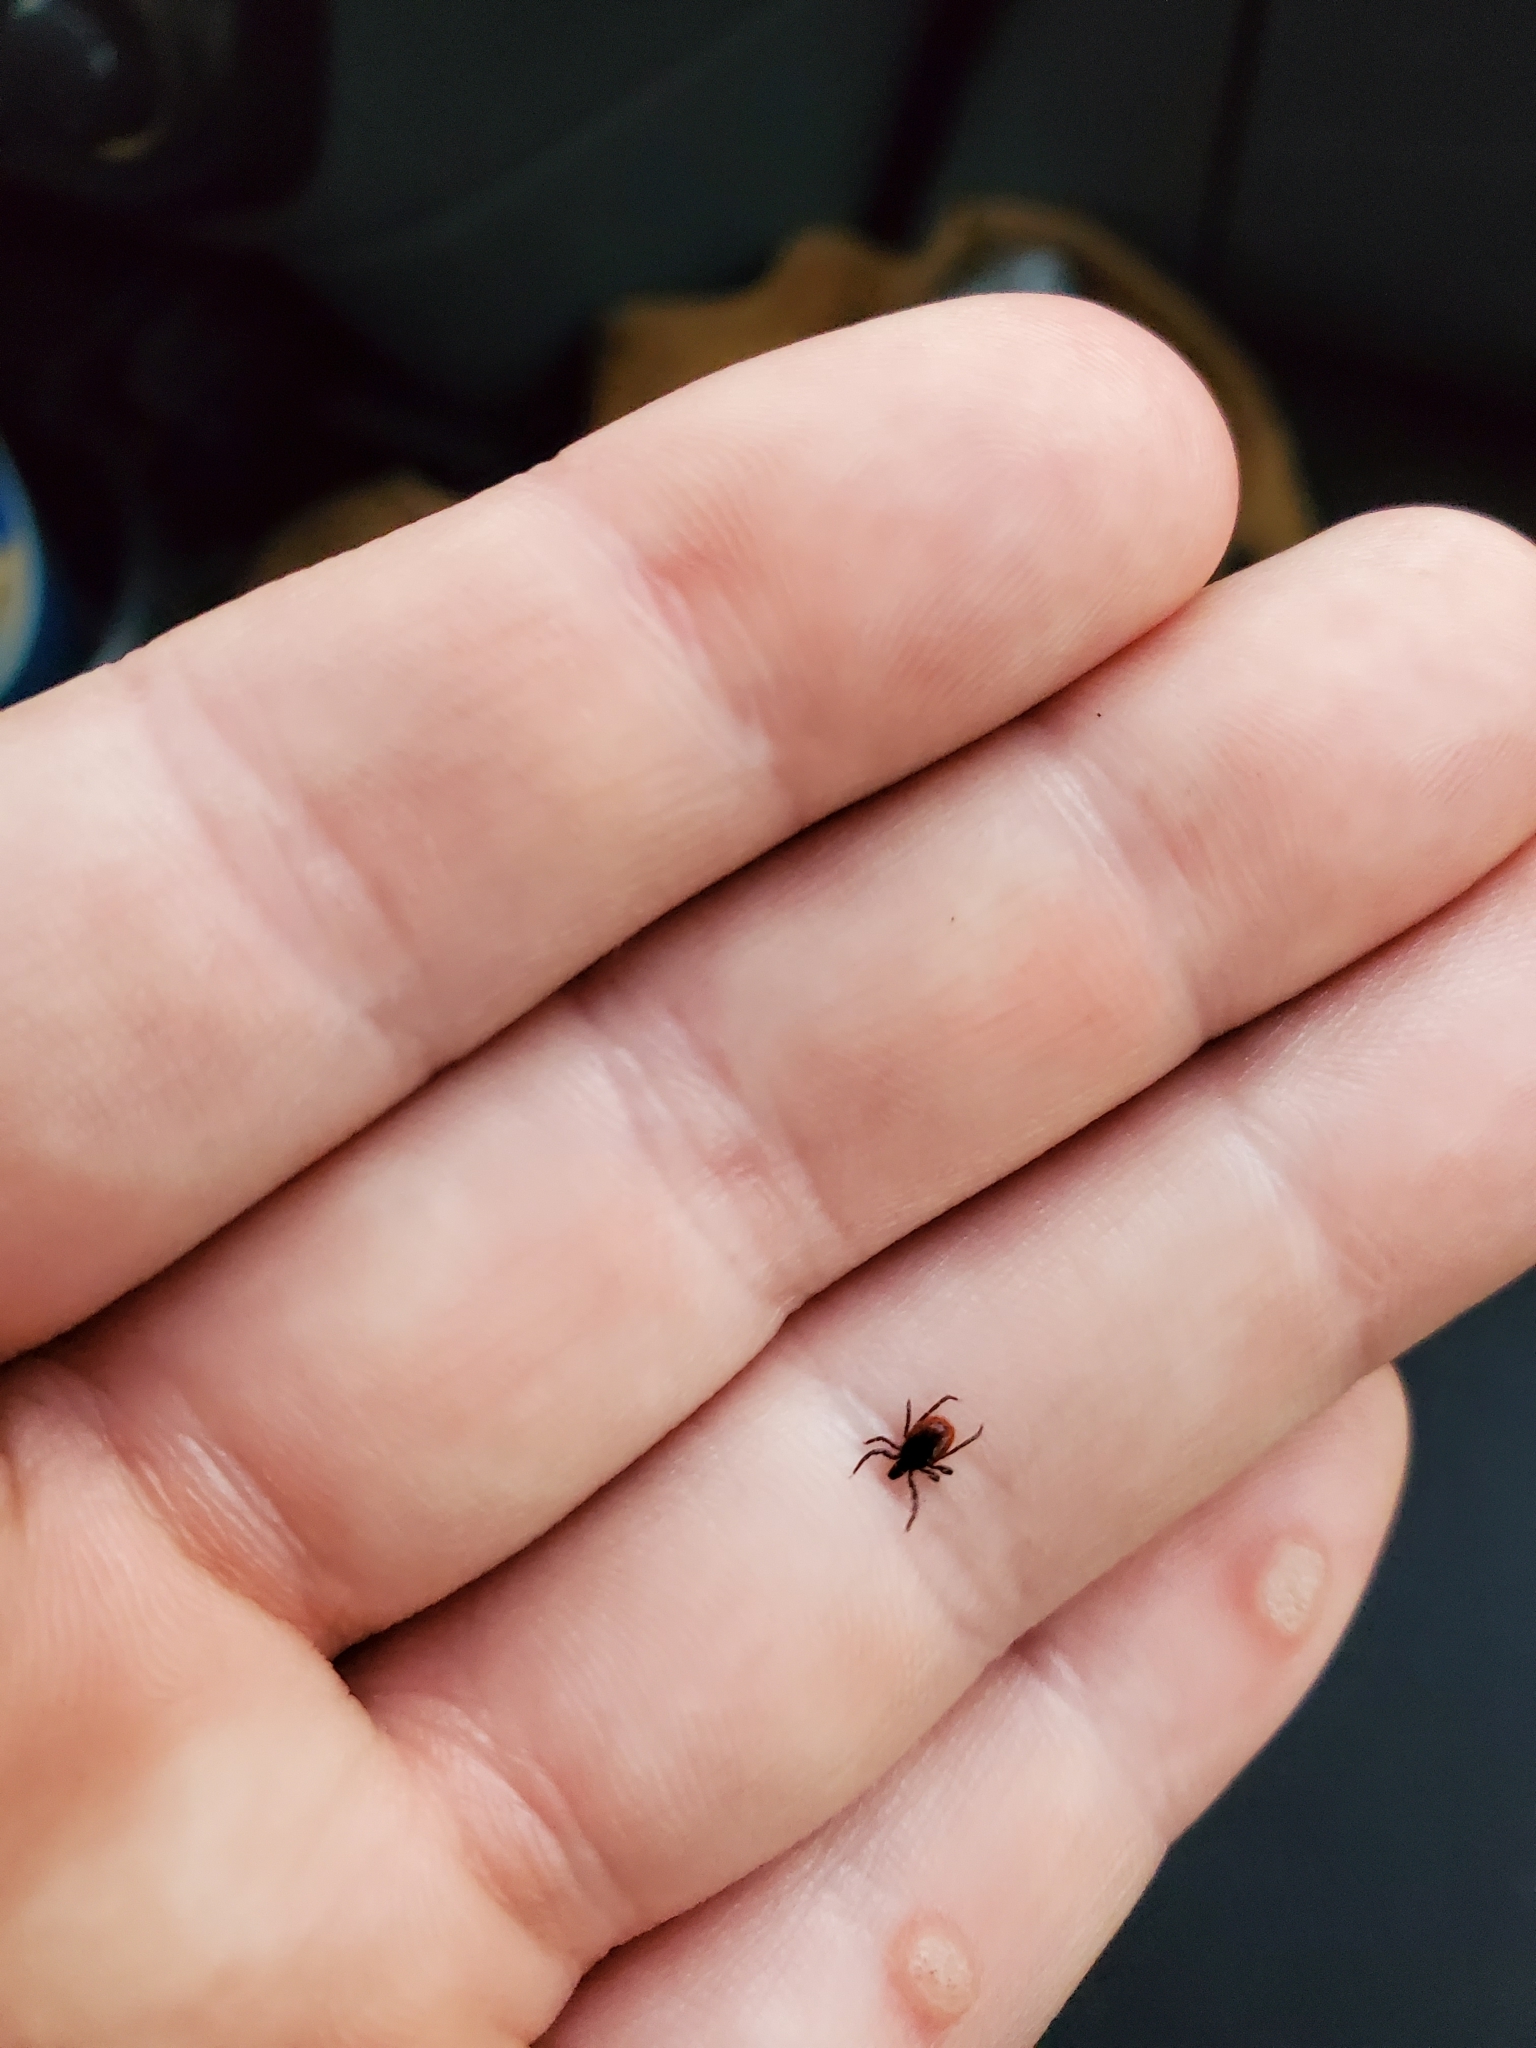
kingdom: Animalia
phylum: Arthropoda
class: Arachnida
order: Ixodida
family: Ixodidae
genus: Ixodes
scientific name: Ixodes scapularis
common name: Black legged tick
